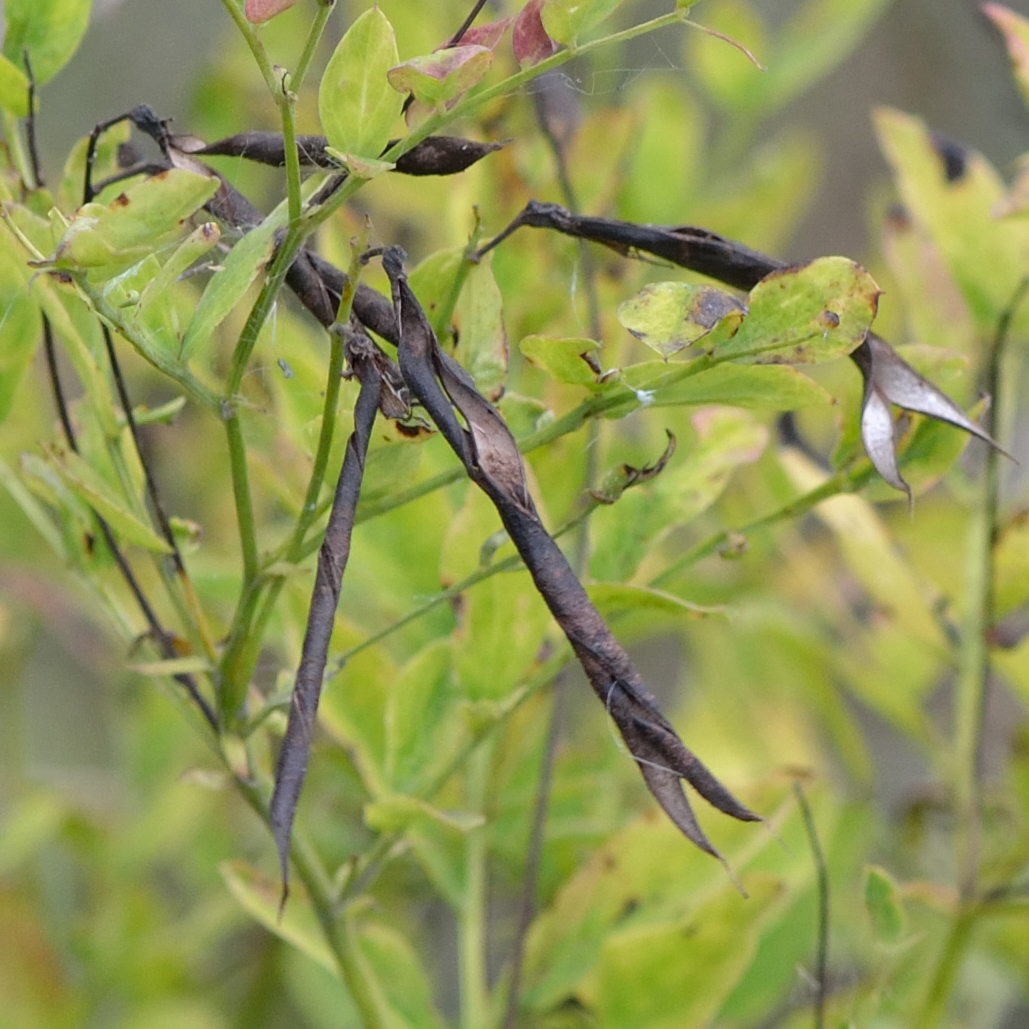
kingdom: Plantae
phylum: Tracheophyta
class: Magnoliopsida
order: Fabales
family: Fabaceae
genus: Lathyrus
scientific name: Lathyrus niger
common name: Black pea
